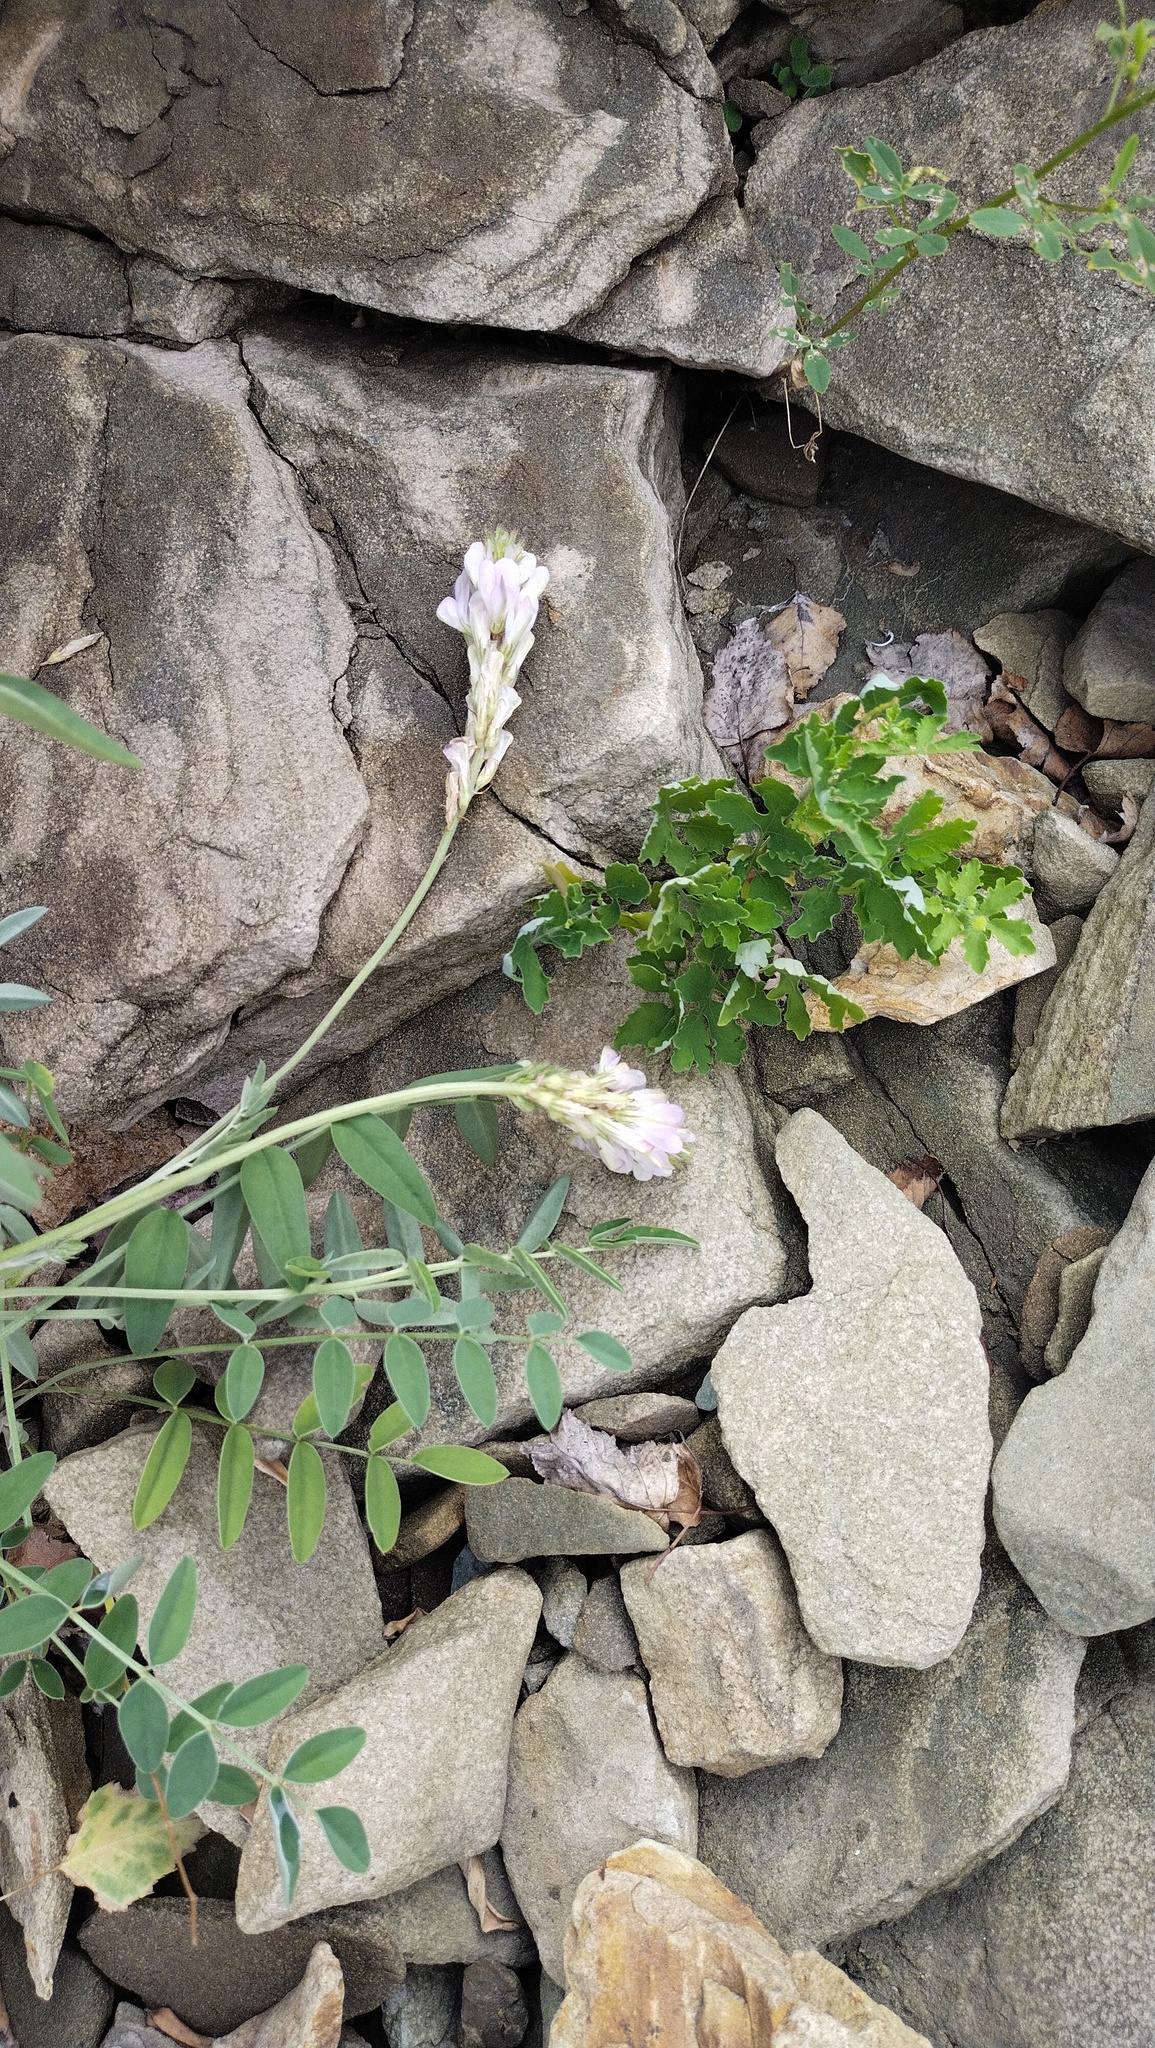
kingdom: Plantae
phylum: Tracheophyta
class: Magnoliopsida
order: Fabales
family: Fabaceae
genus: Astragalus
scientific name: Astragalus laxmannii
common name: Laxmann's milk-vetch
